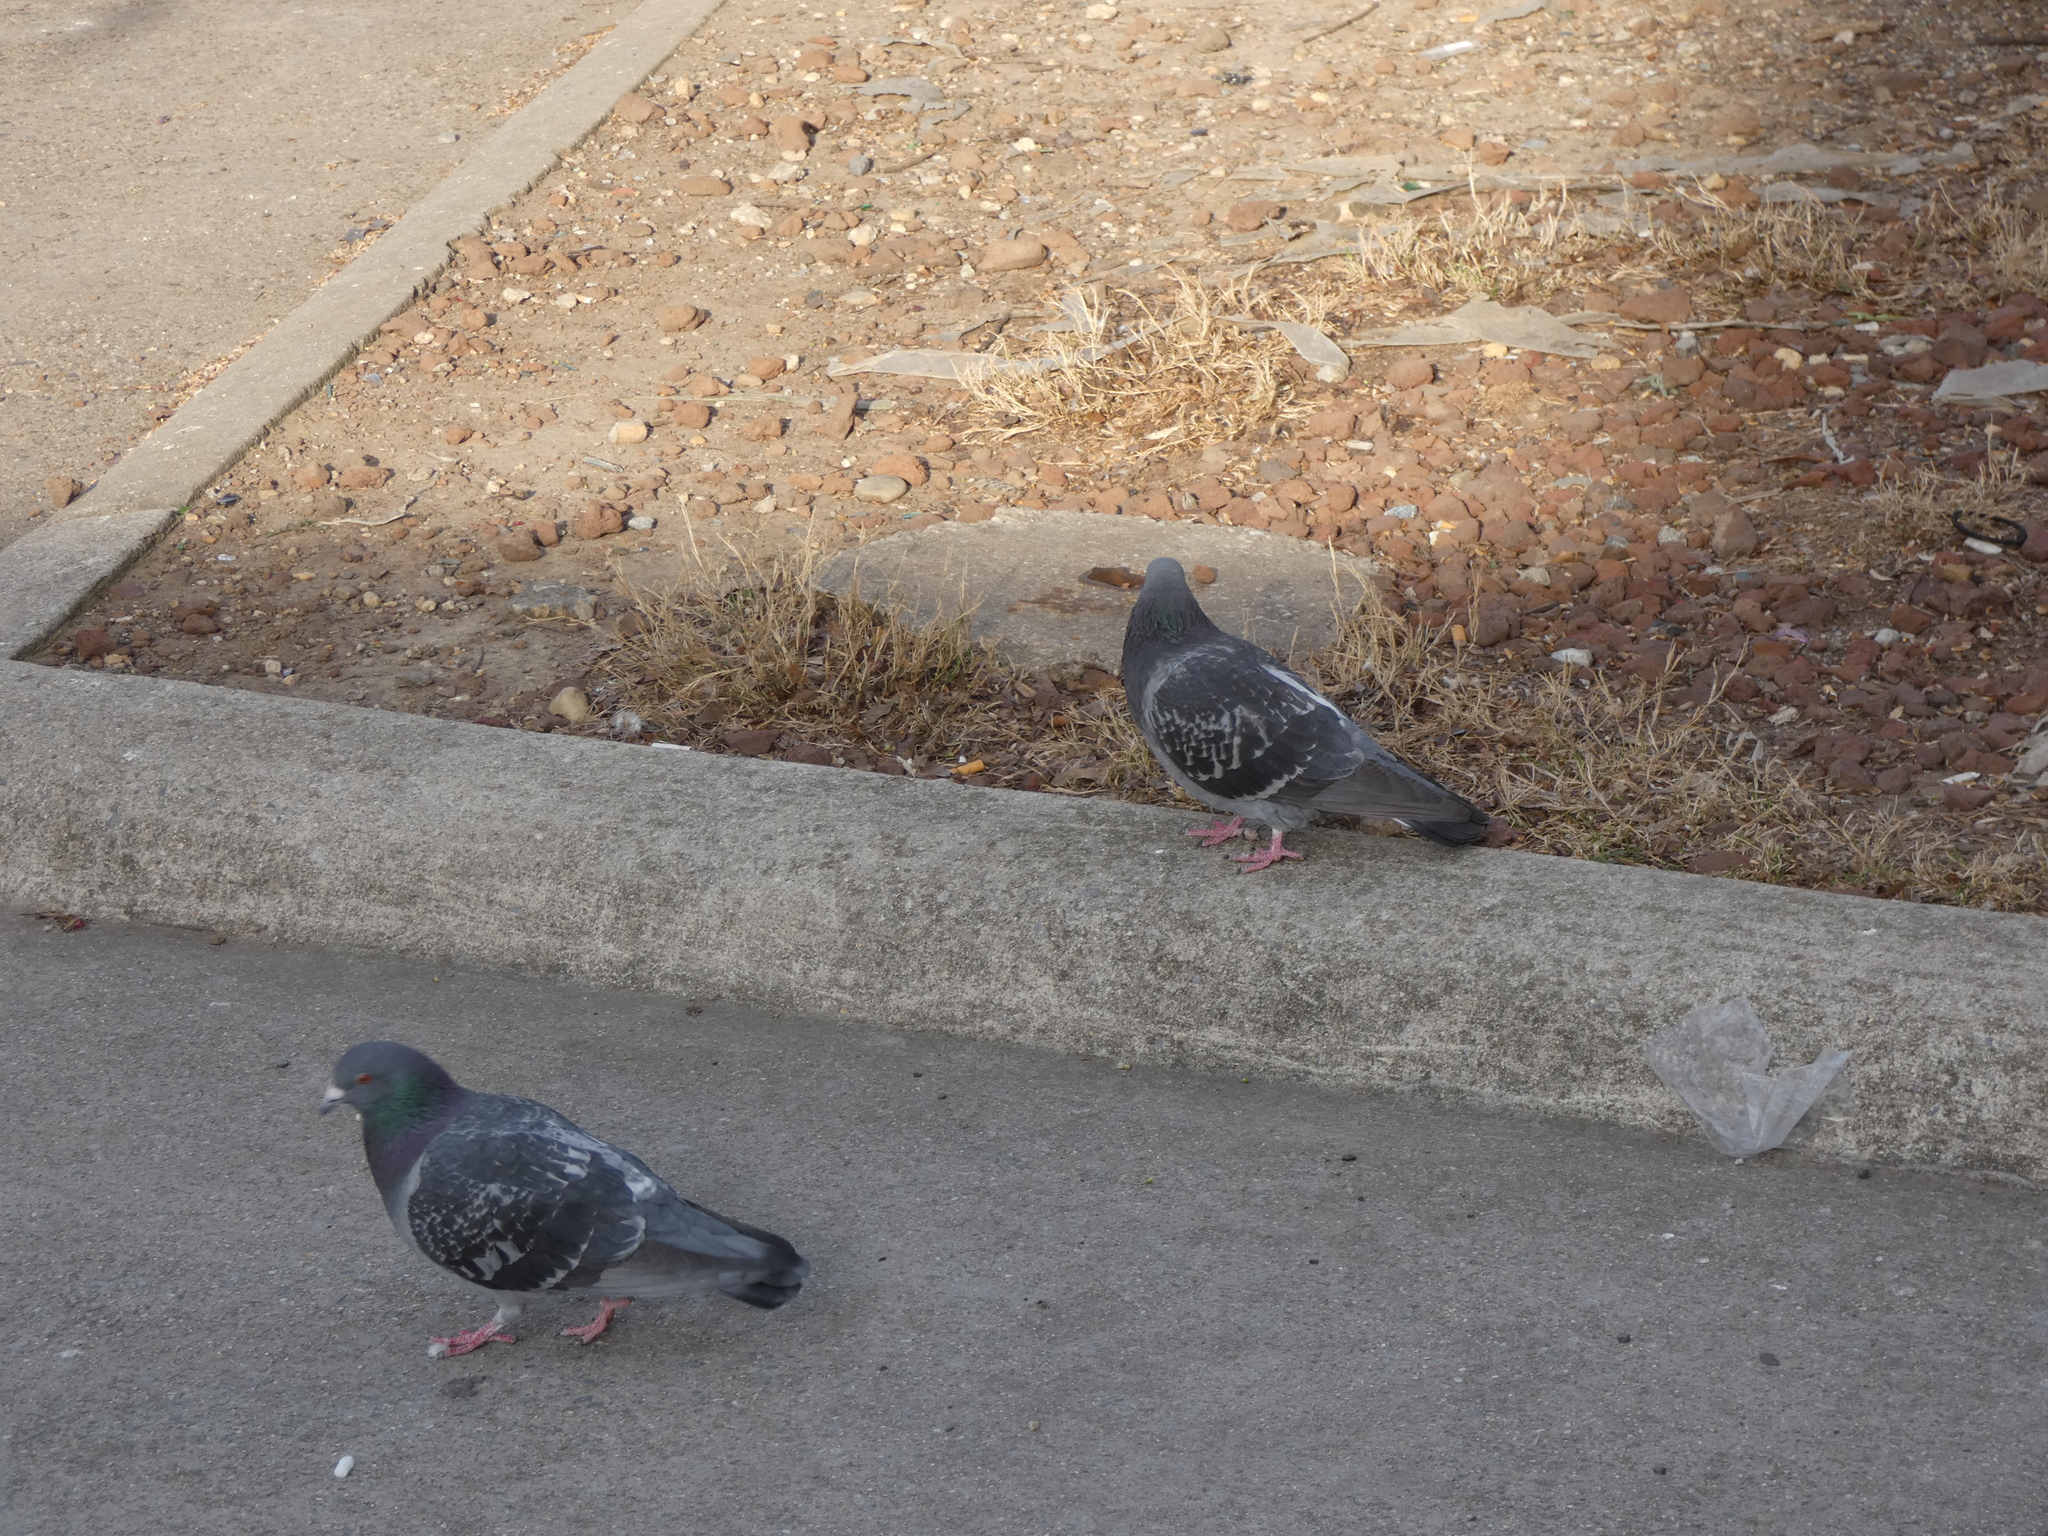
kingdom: Animalia
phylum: Chordata
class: Aves
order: Columbiformes
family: Columbidae
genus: Columba
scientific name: Columba livia
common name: Rock pigeon
